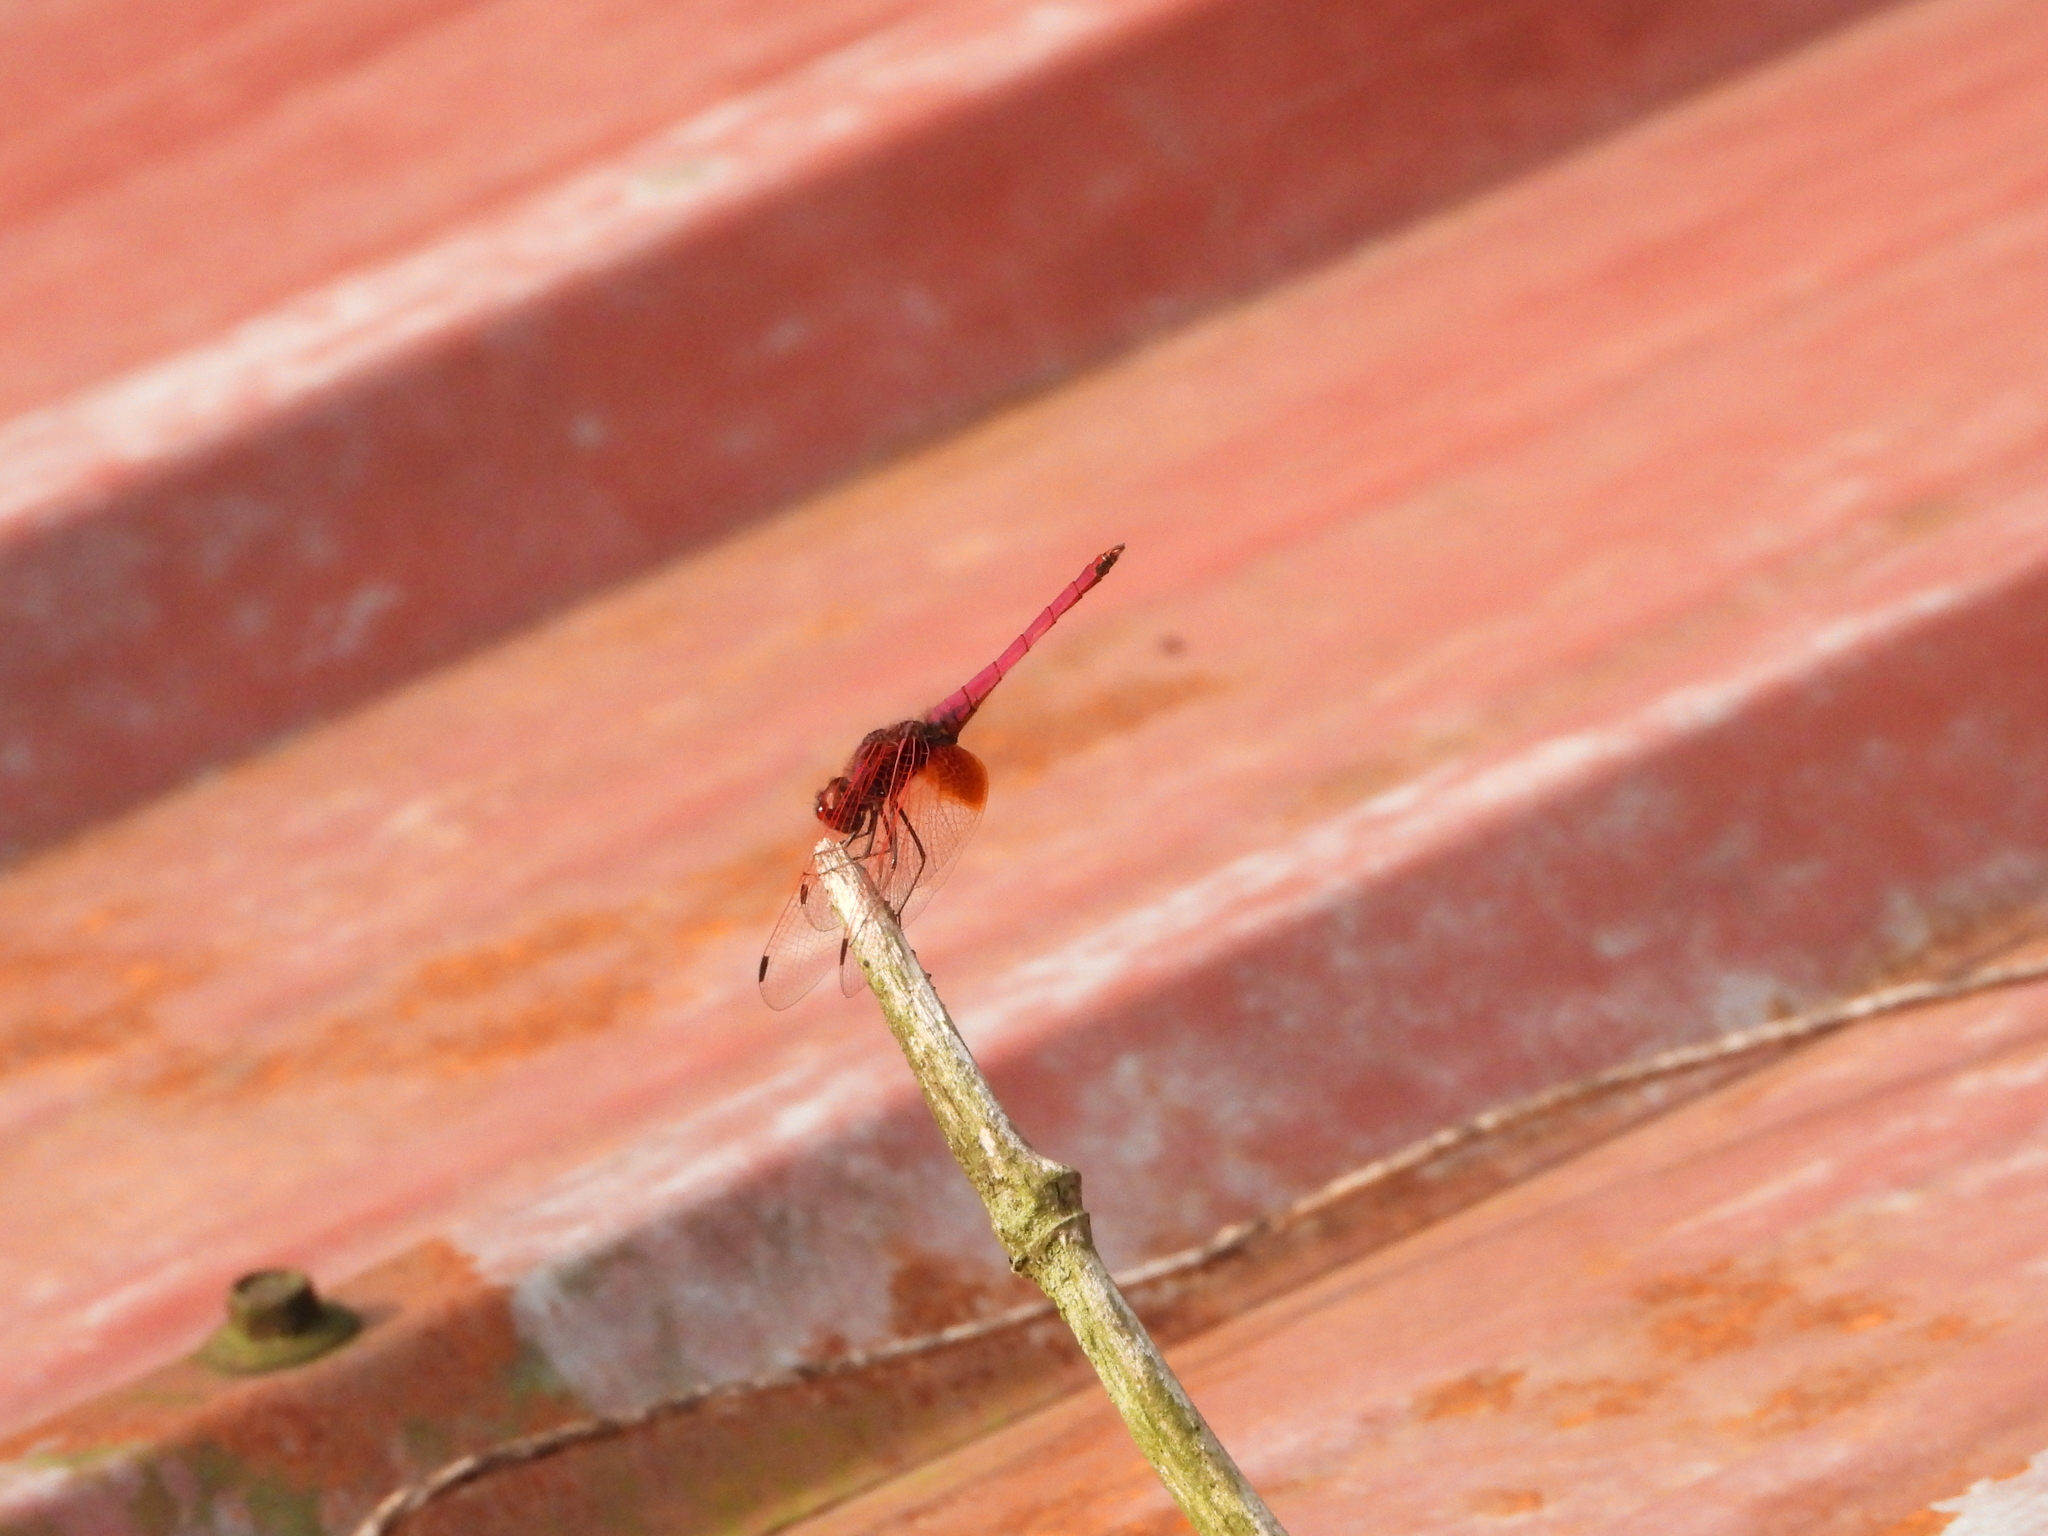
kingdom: Animalia
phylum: Arthropoda
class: Insecta
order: Odonata
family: Libellulidae
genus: Trithemis
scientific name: Trithemis aurora
